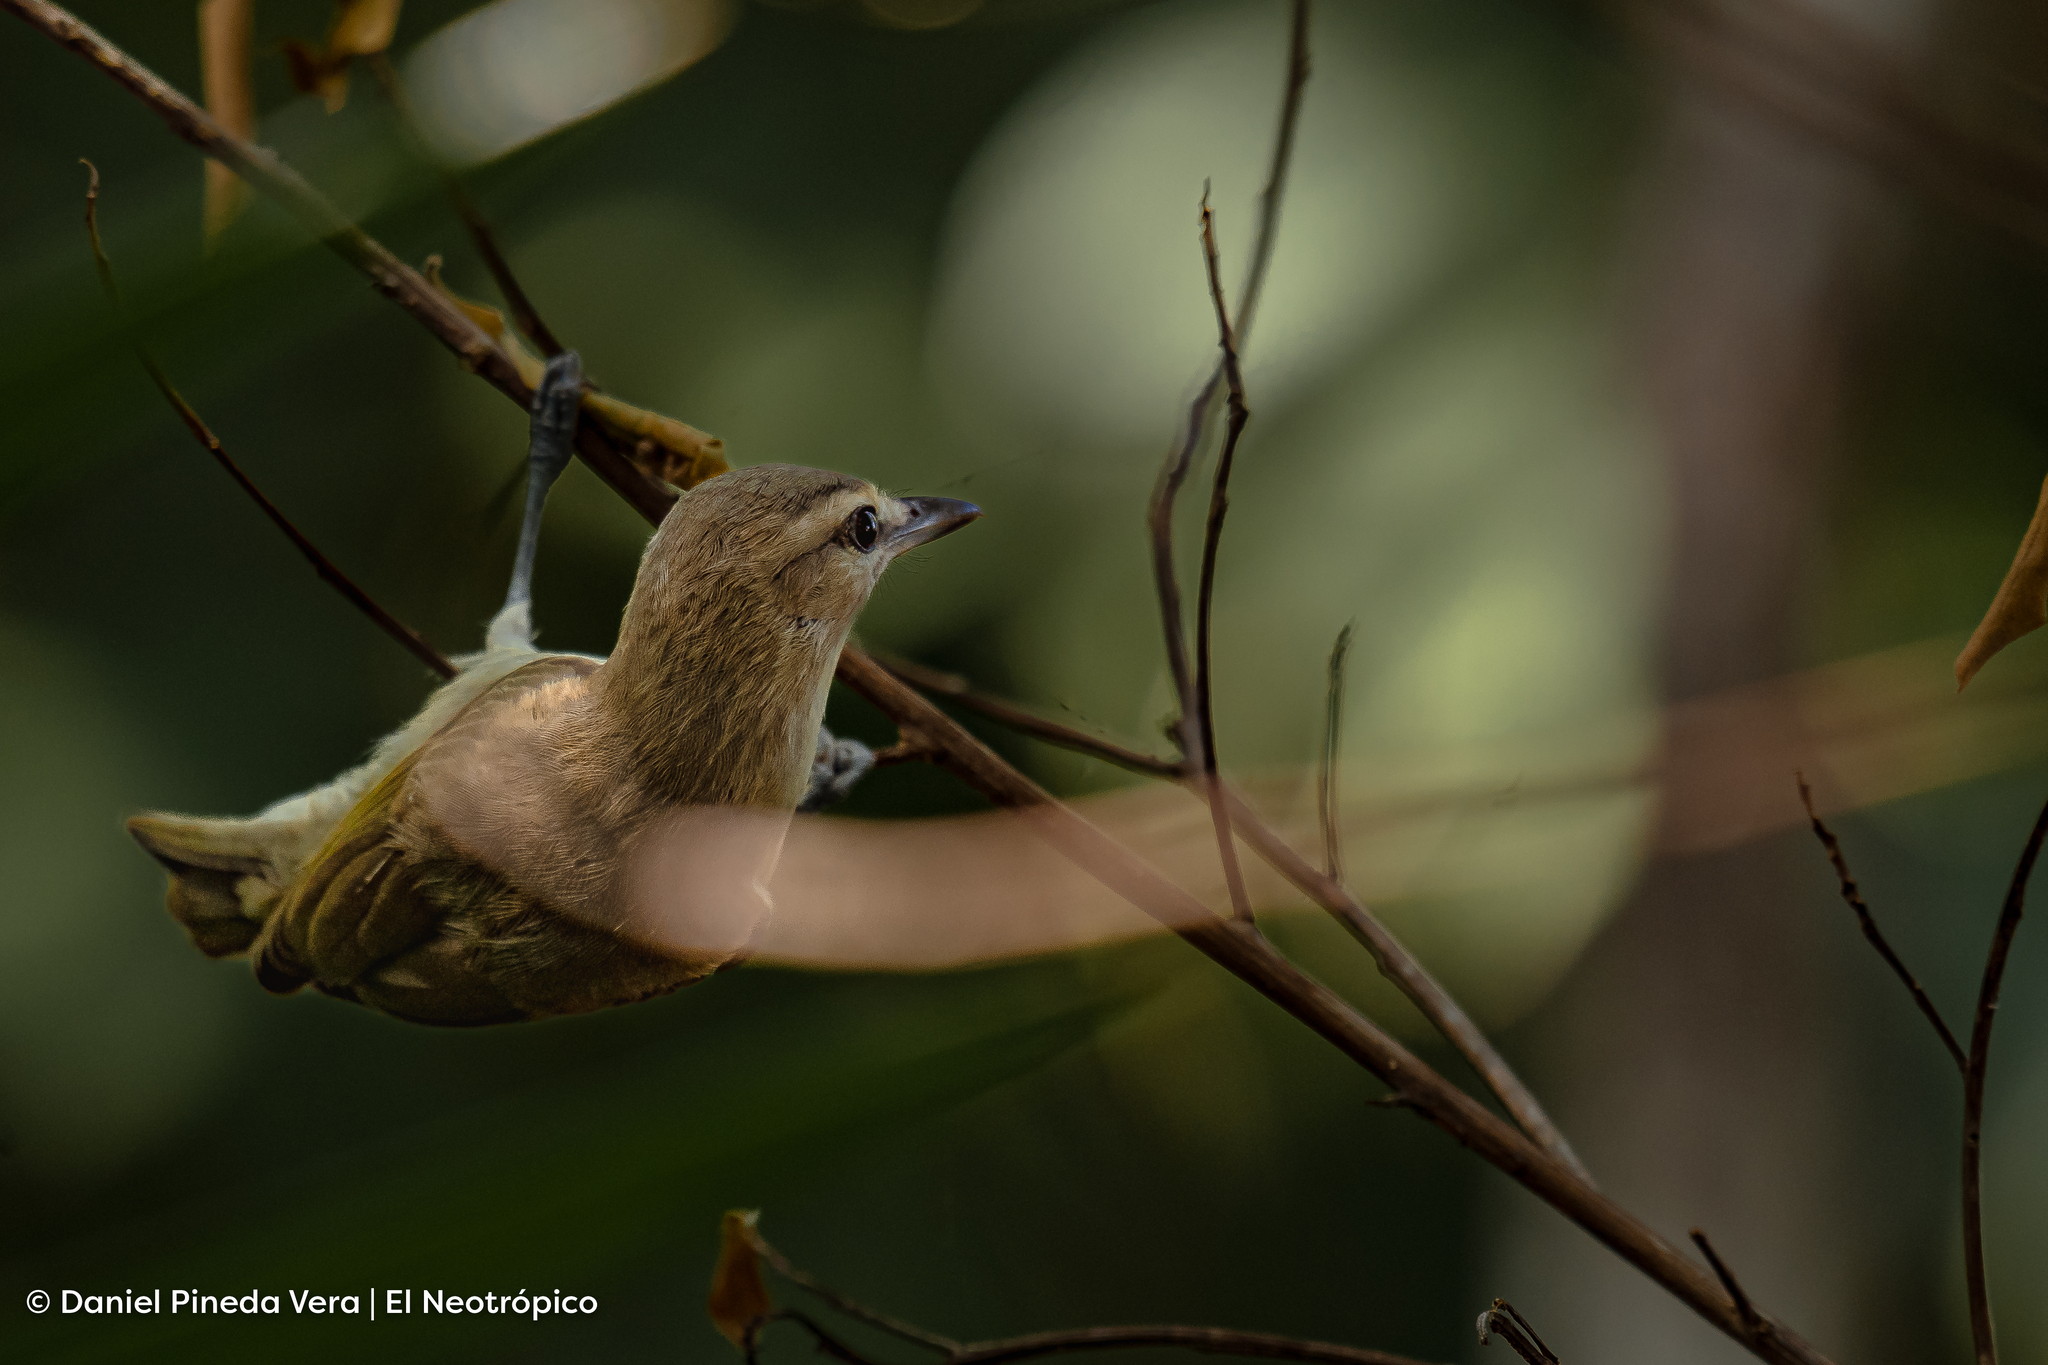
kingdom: Animalia
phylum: Chordata
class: Aves
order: Passeriformes
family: Vireonidae
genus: Vireo
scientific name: Vireo magister
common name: Yucatan vireo
